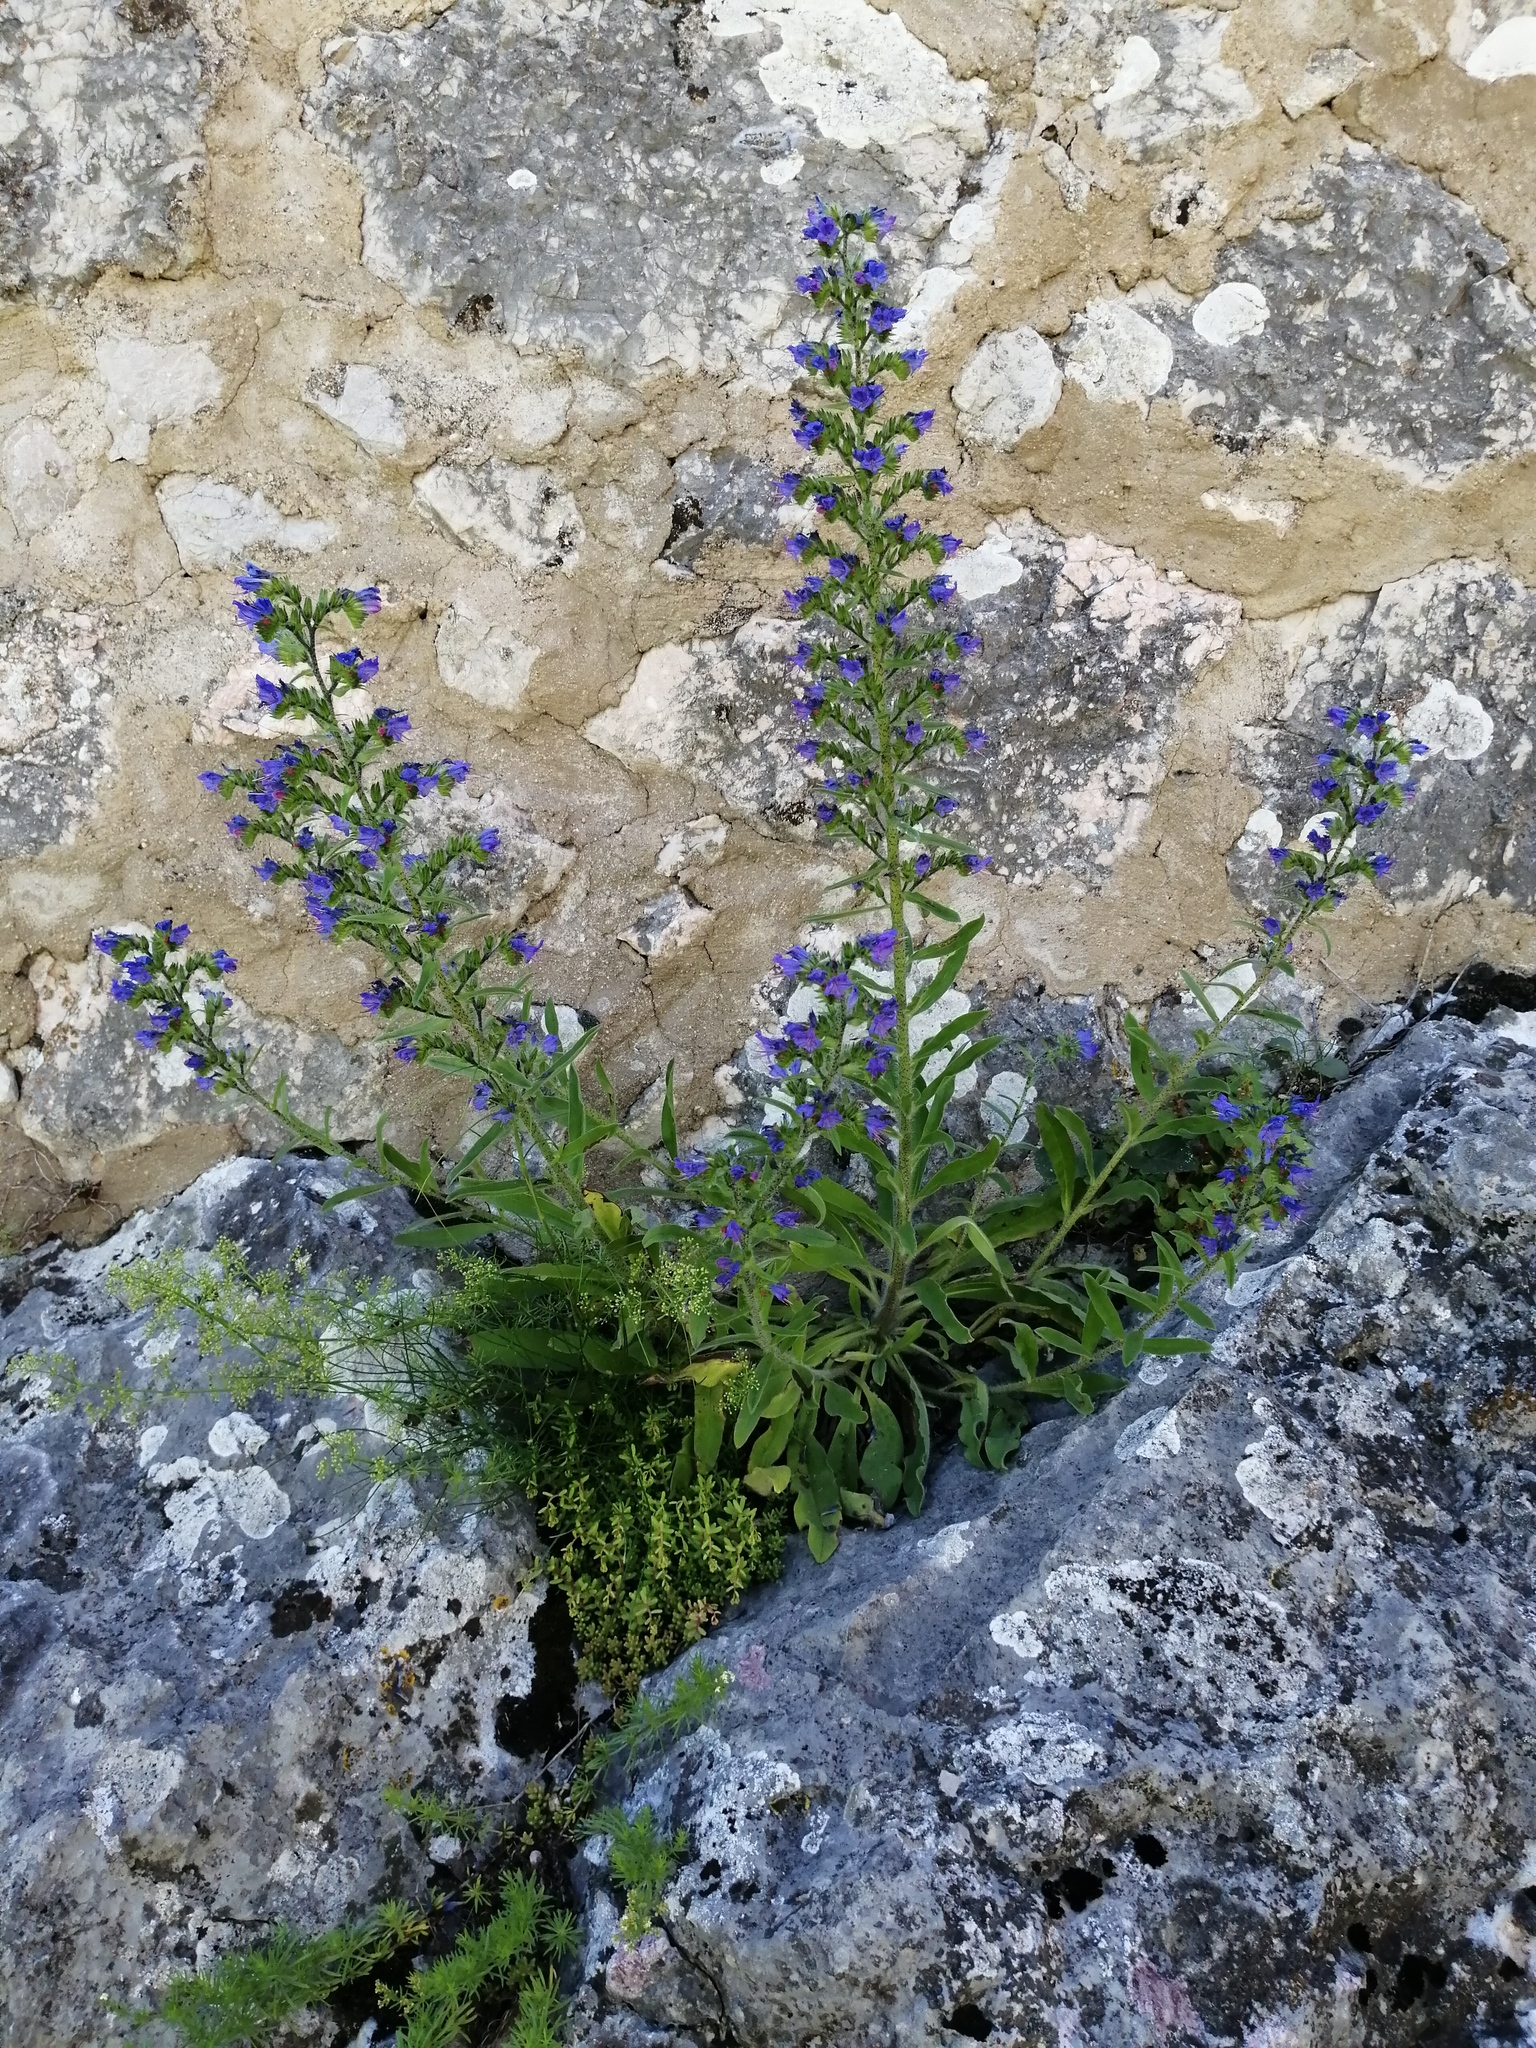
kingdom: Plantae
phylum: Tracheophyta
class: Magnoliopsida
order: Boraginales
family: Boraginaceae
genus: Echium
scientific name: Echium vulgare
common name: Common viper's bugloss
